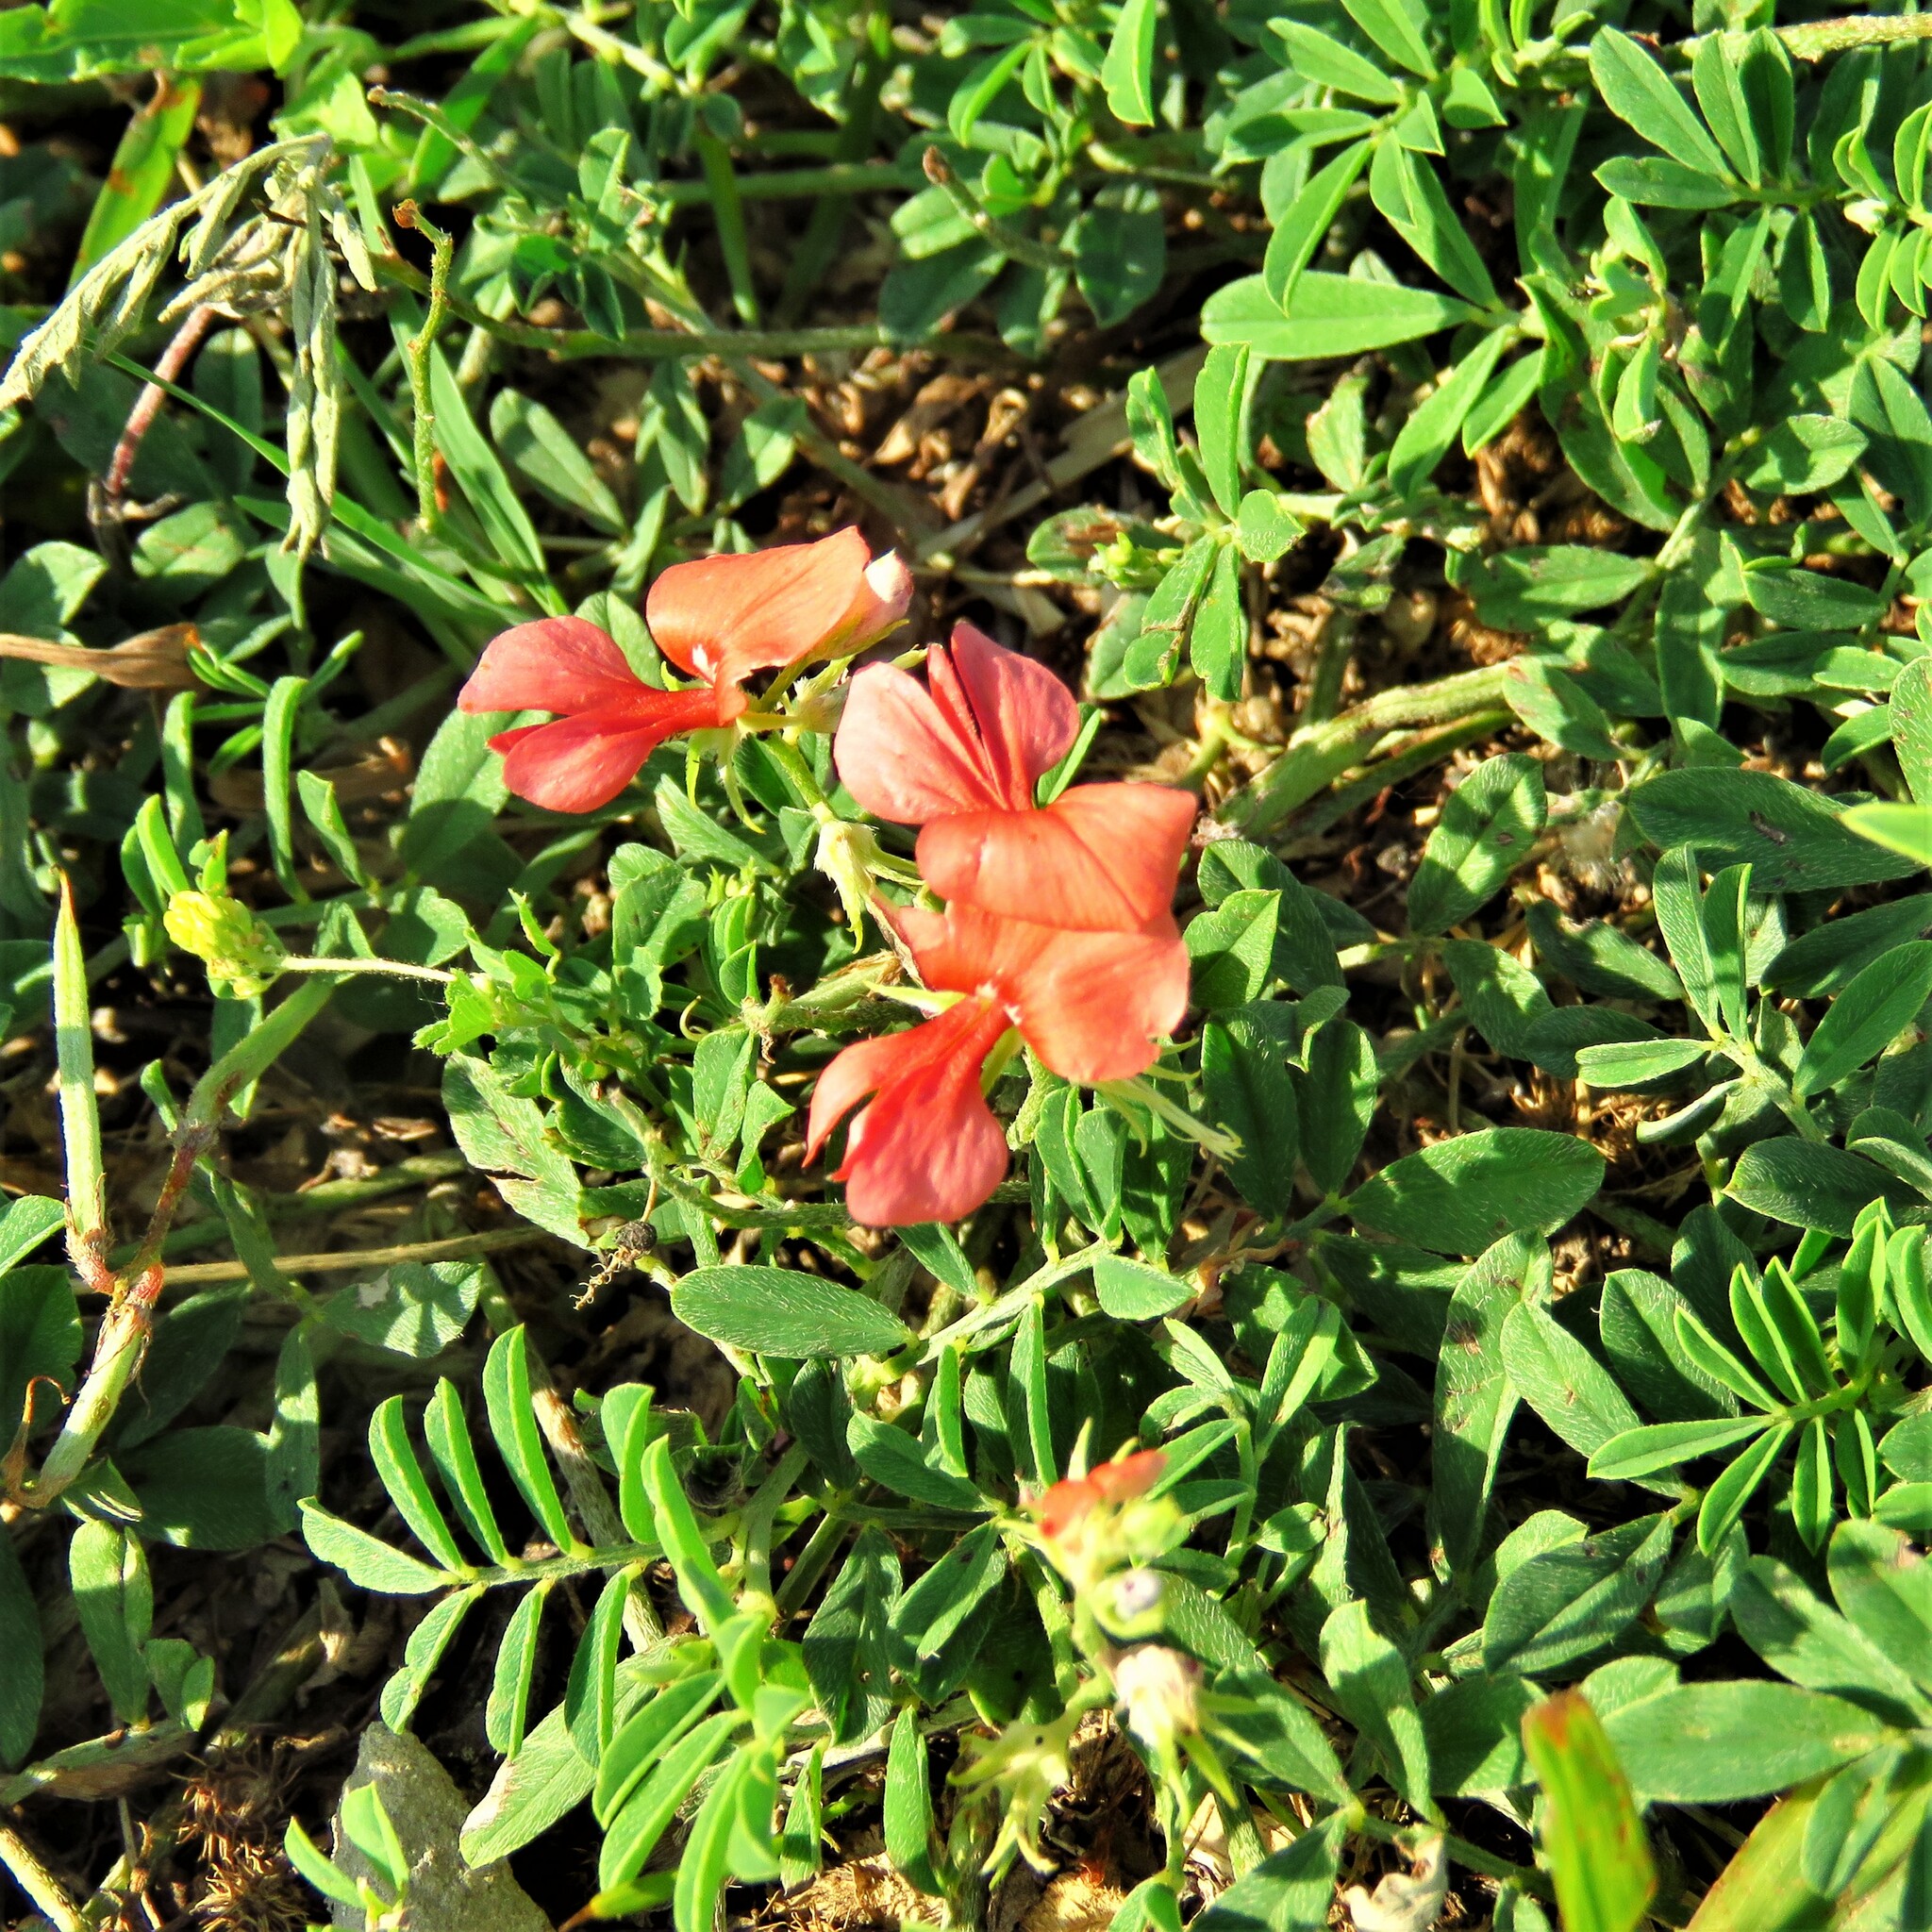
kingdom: Plantae
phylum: Tracheophyta
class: Magnoliopsida
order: Fabales
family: Fabaceae
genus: Indigofera
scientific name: Indigofera miniata
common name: Coast indigo
